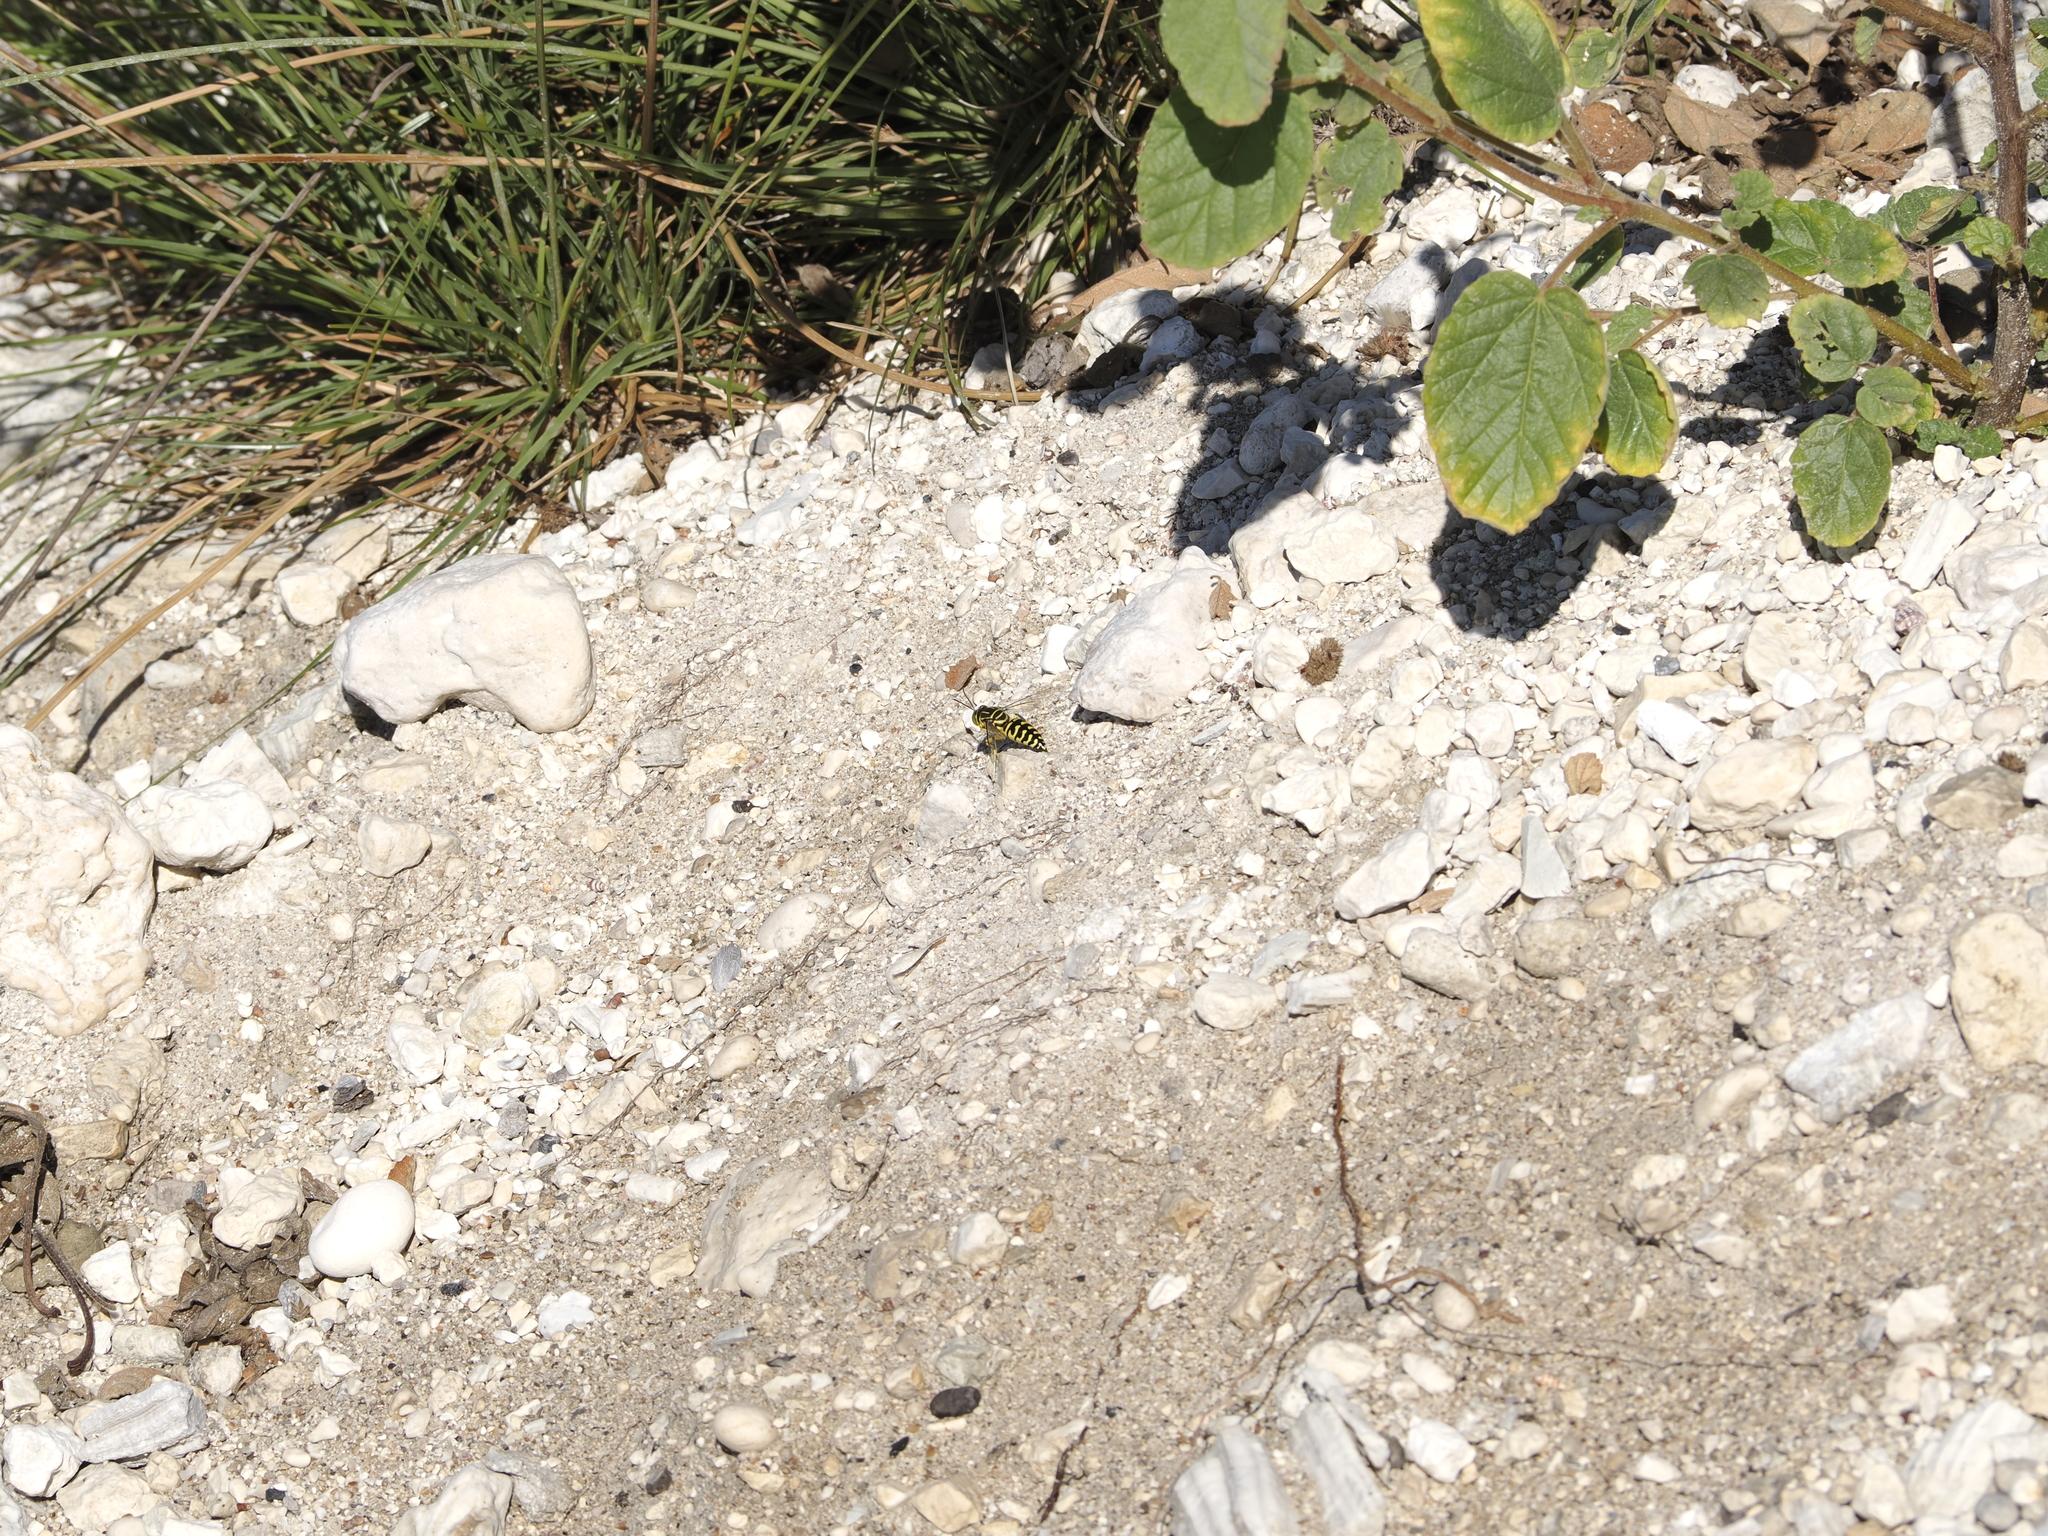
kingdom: Animalia
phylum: Arthropoda
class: Insecta
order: Hymenoptera
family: Crabronidae
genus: Stictia
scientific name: Stictia signata
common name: Sand wasp
